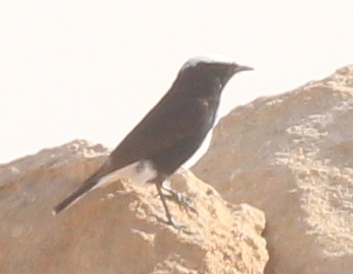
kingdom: Animalia
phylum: Chordata
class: Aves
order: Passeriformes
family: Muscicapidae
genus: Oenanthe
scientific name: Oenanthe leucopyga
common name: White-crowned wheatear
